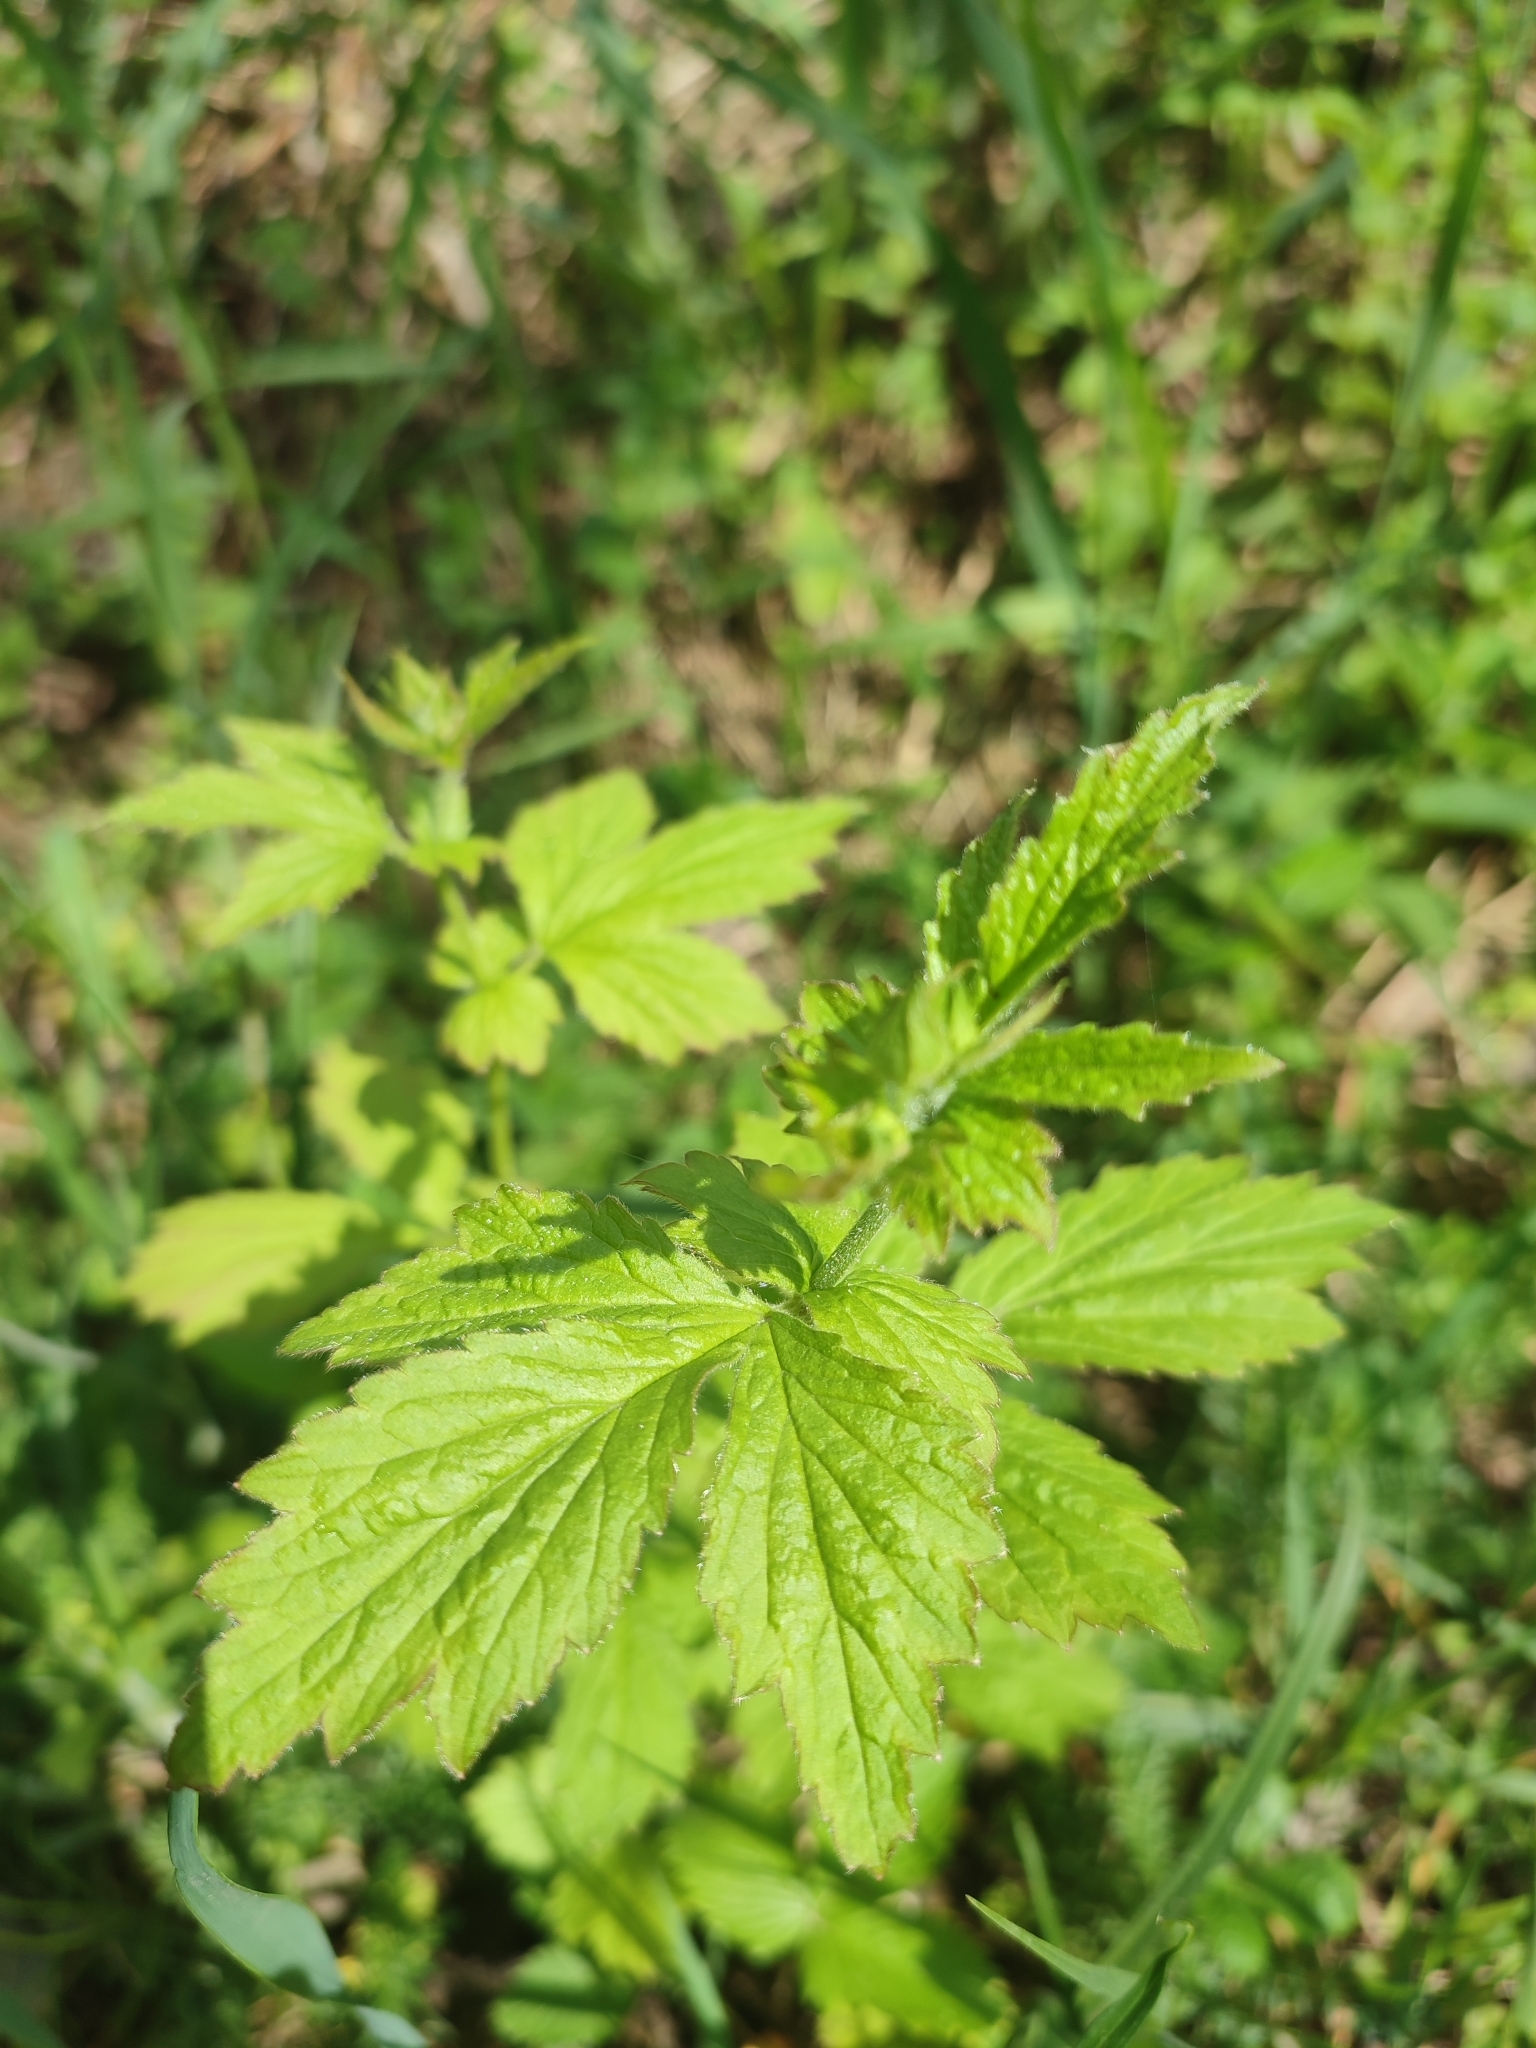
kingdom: Plantae
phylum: Tracheophyta
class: Magnoliopsida
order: Rosales
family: Rosaceae
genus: Geum
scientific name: Geum urbanum
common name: Wood avens
